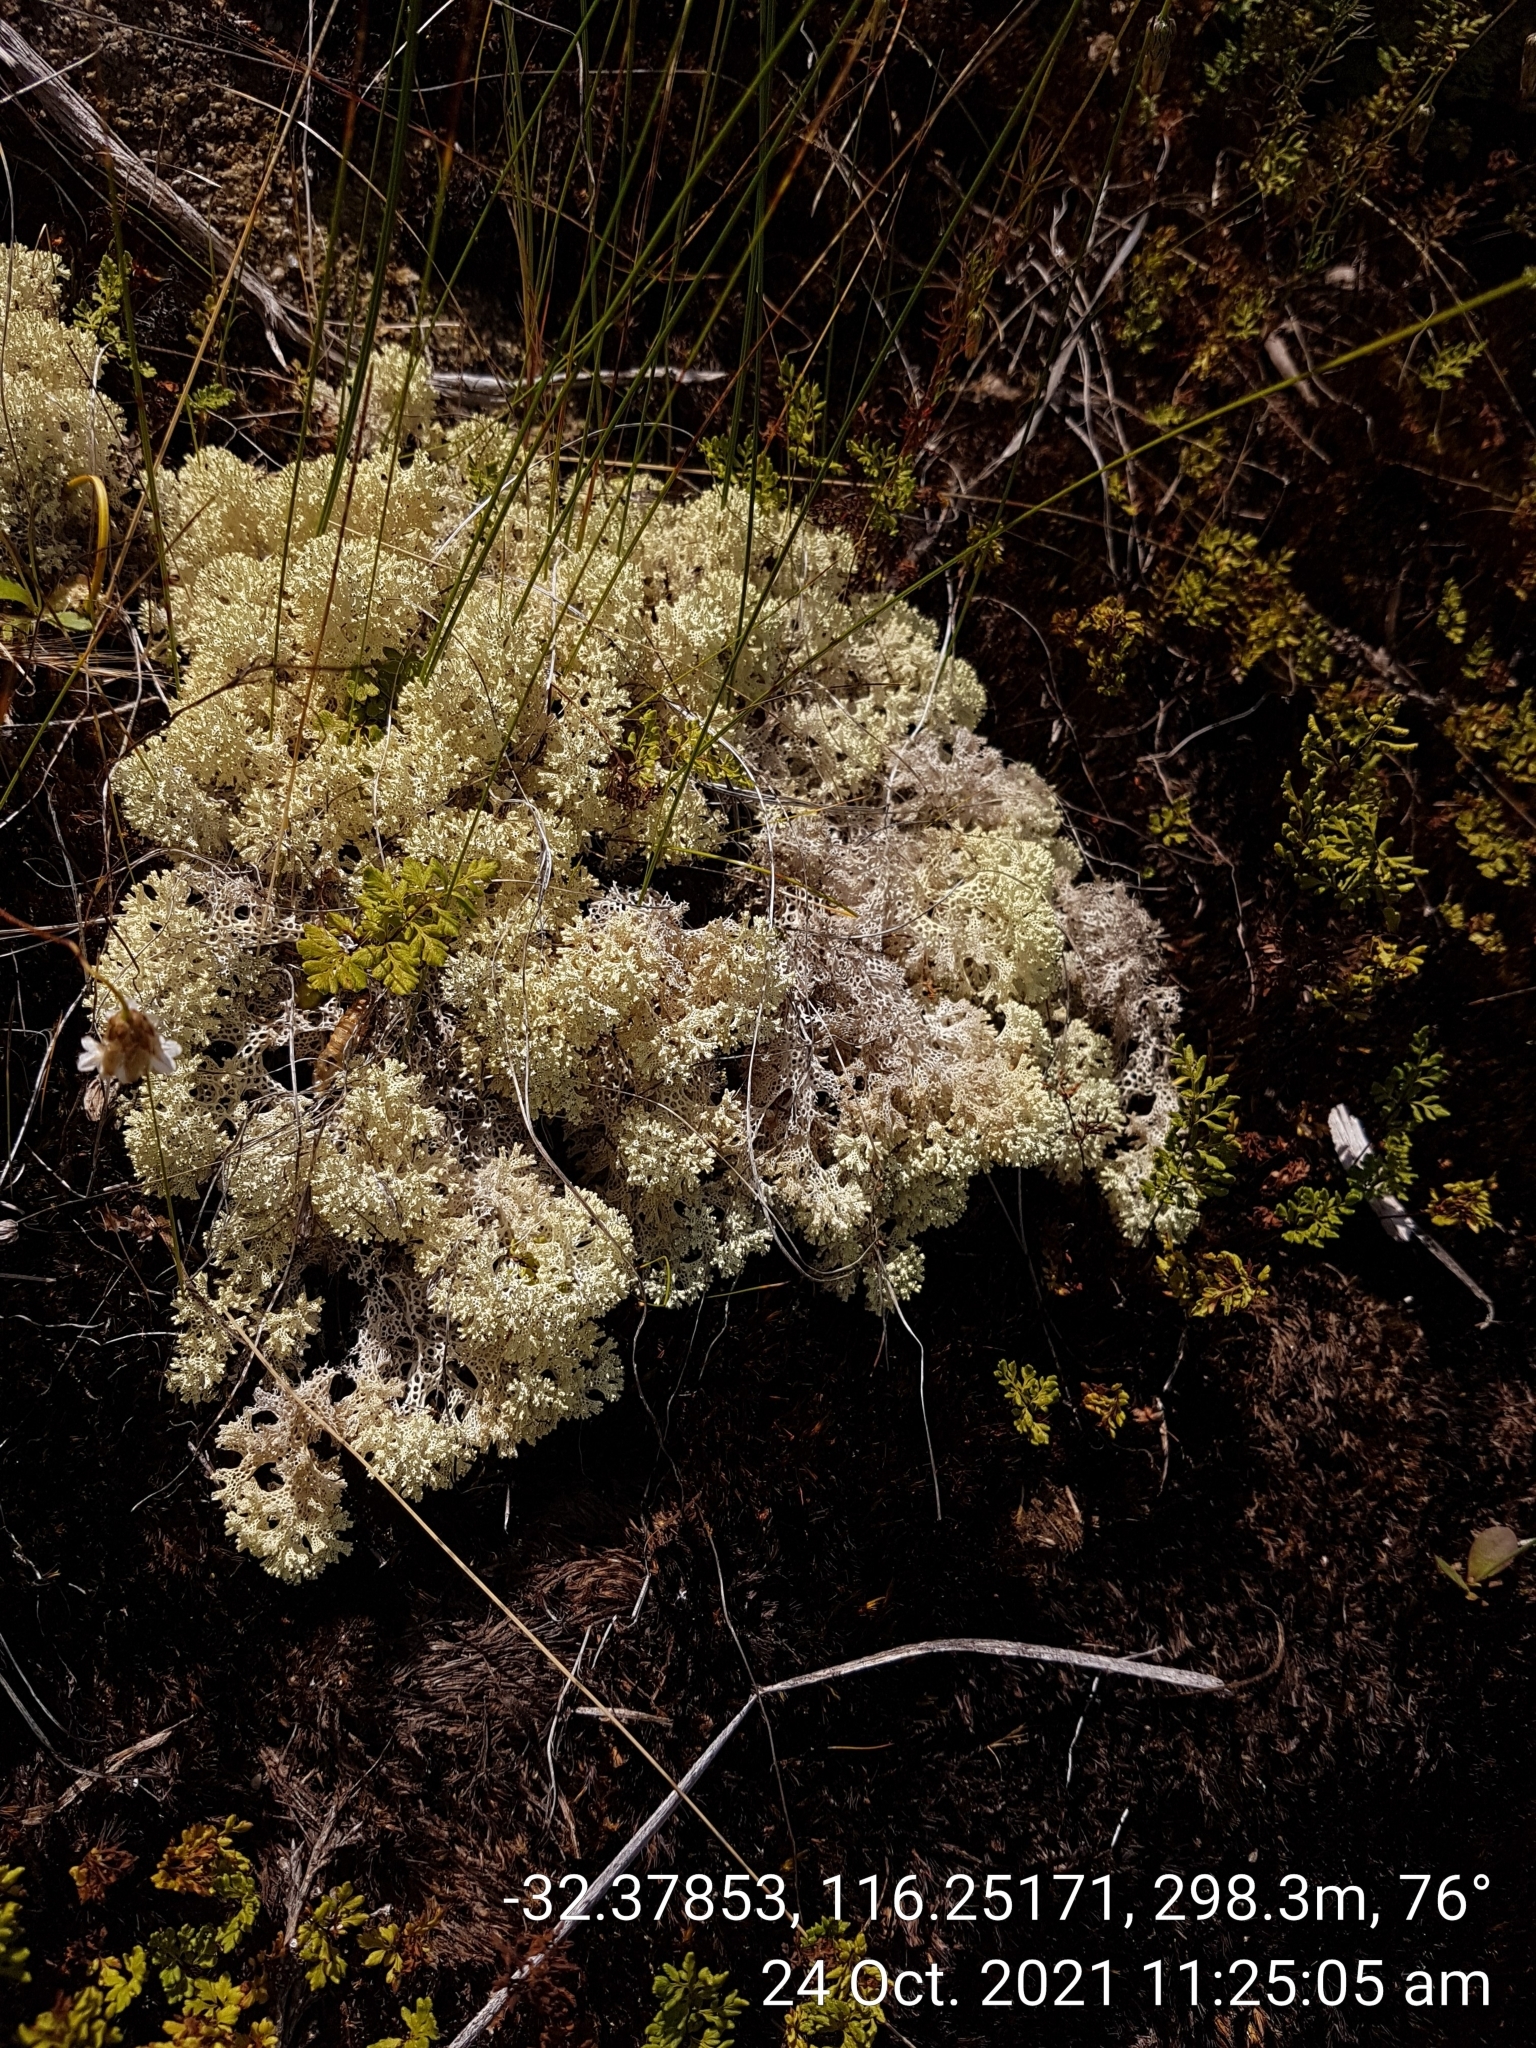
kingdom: Fungi
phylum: Ascomycota
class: Lecanoromycetes
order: Lecanorales
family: Cladoniaceae
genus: Pulchrocladia
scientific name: Pulchrocladia ferdinandii
